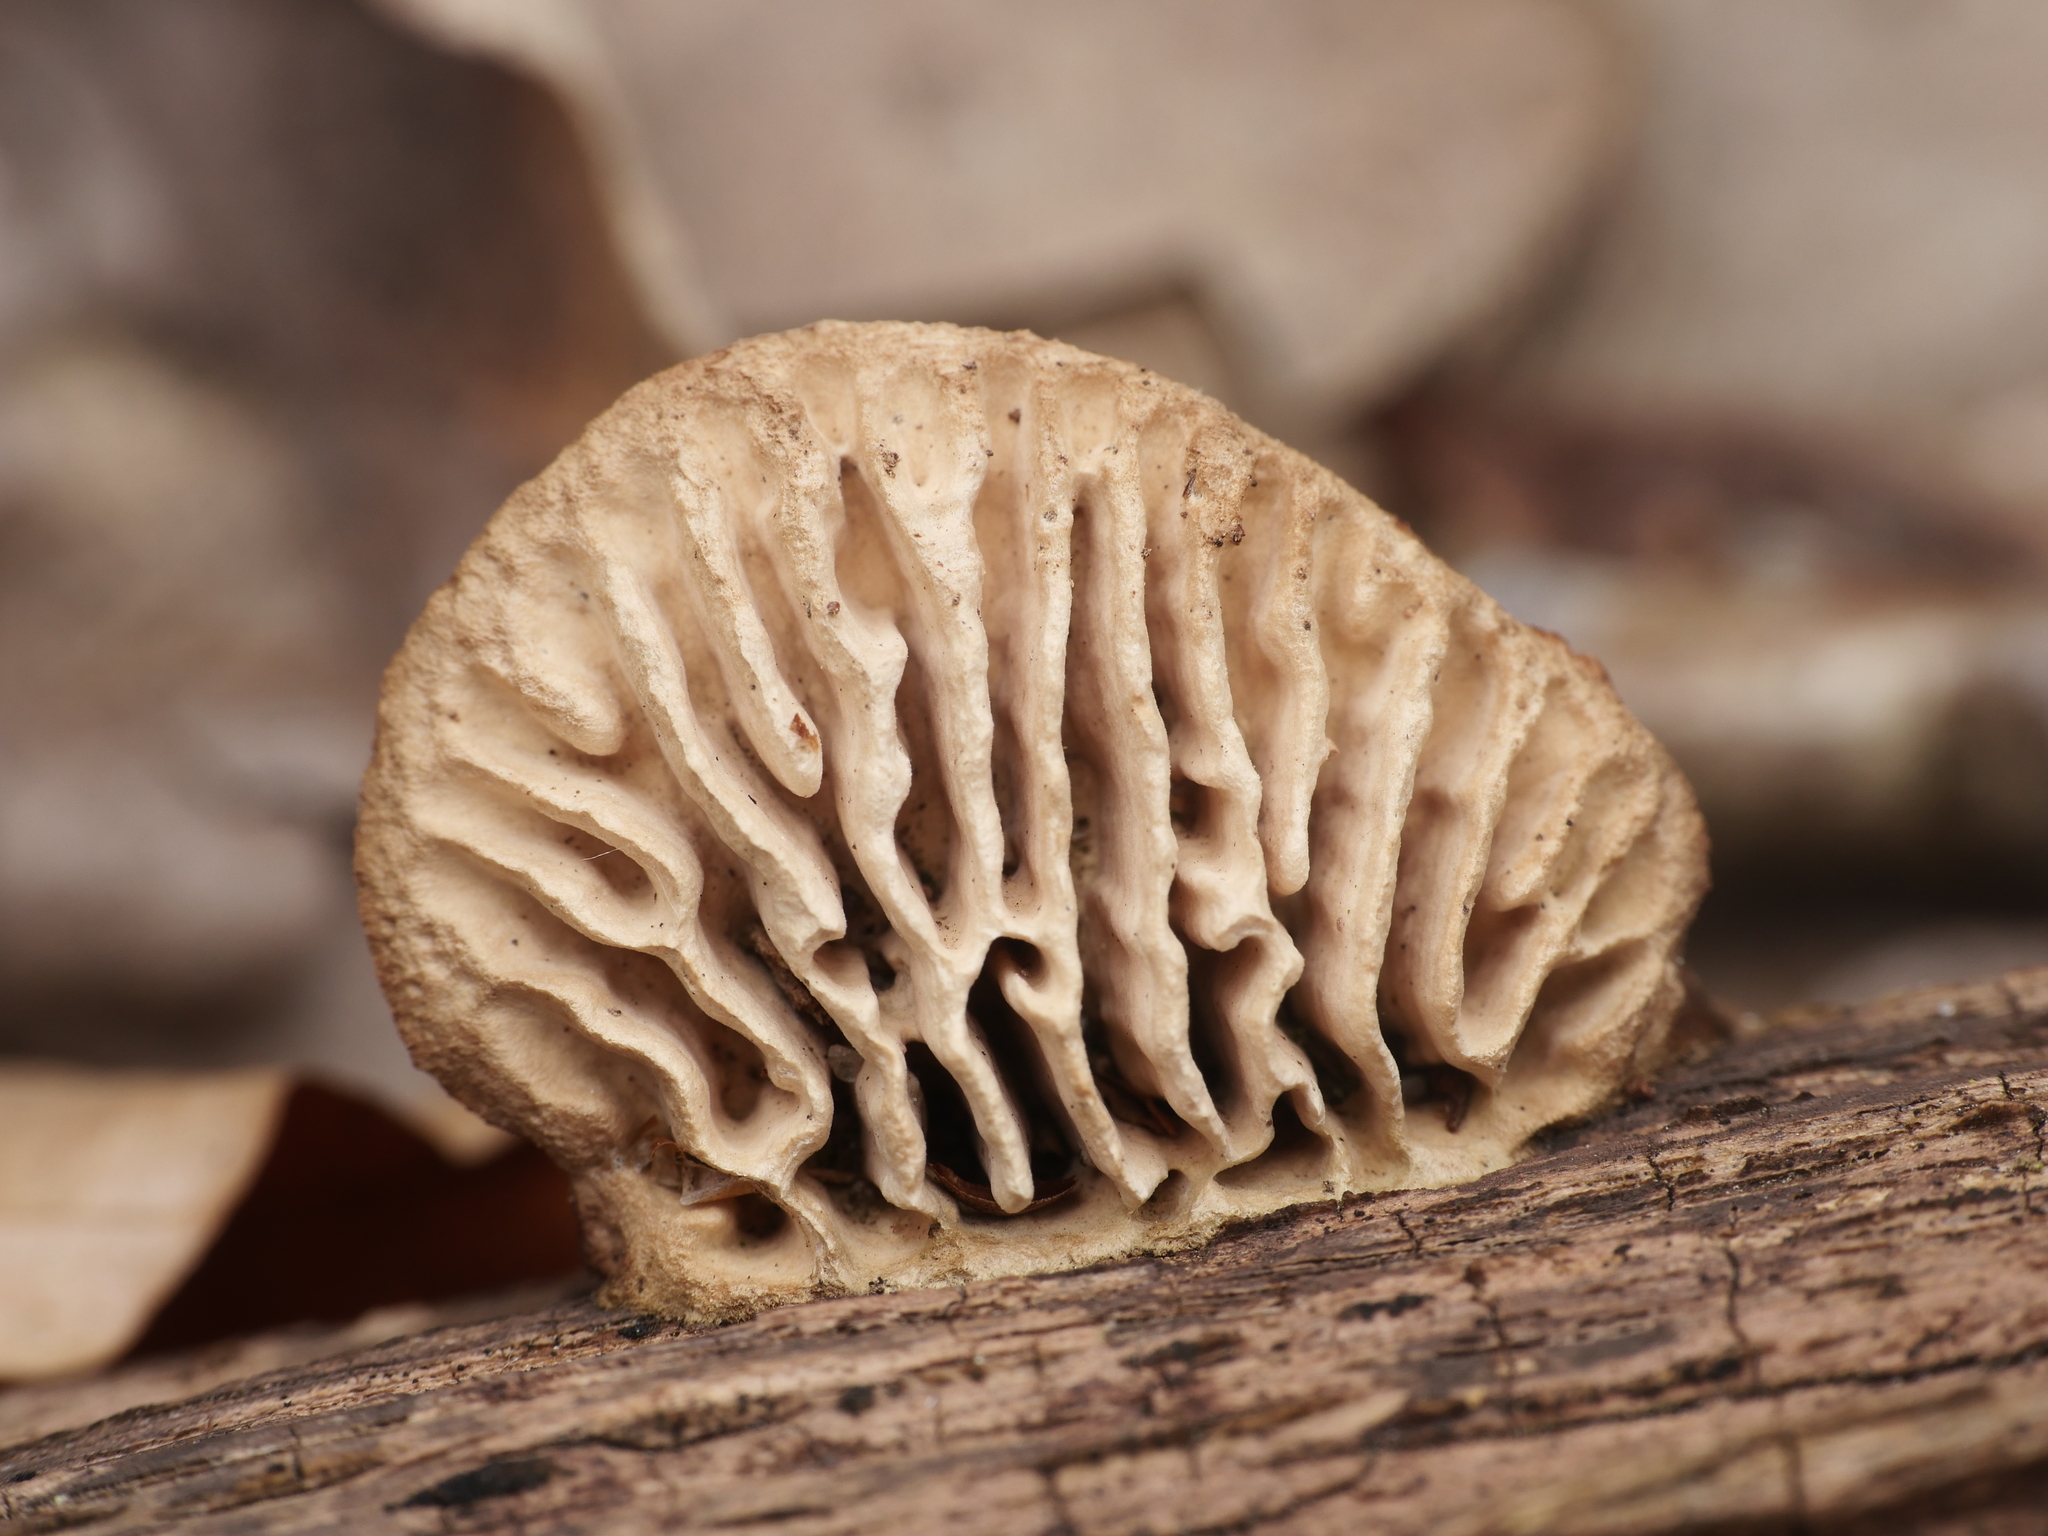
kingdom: Fungi
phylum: Basidiomycota
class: Agaricomycetes
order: Polyporales
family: Fomitopsidaceae
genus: Fomitopsis
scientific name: Fomitopsis
